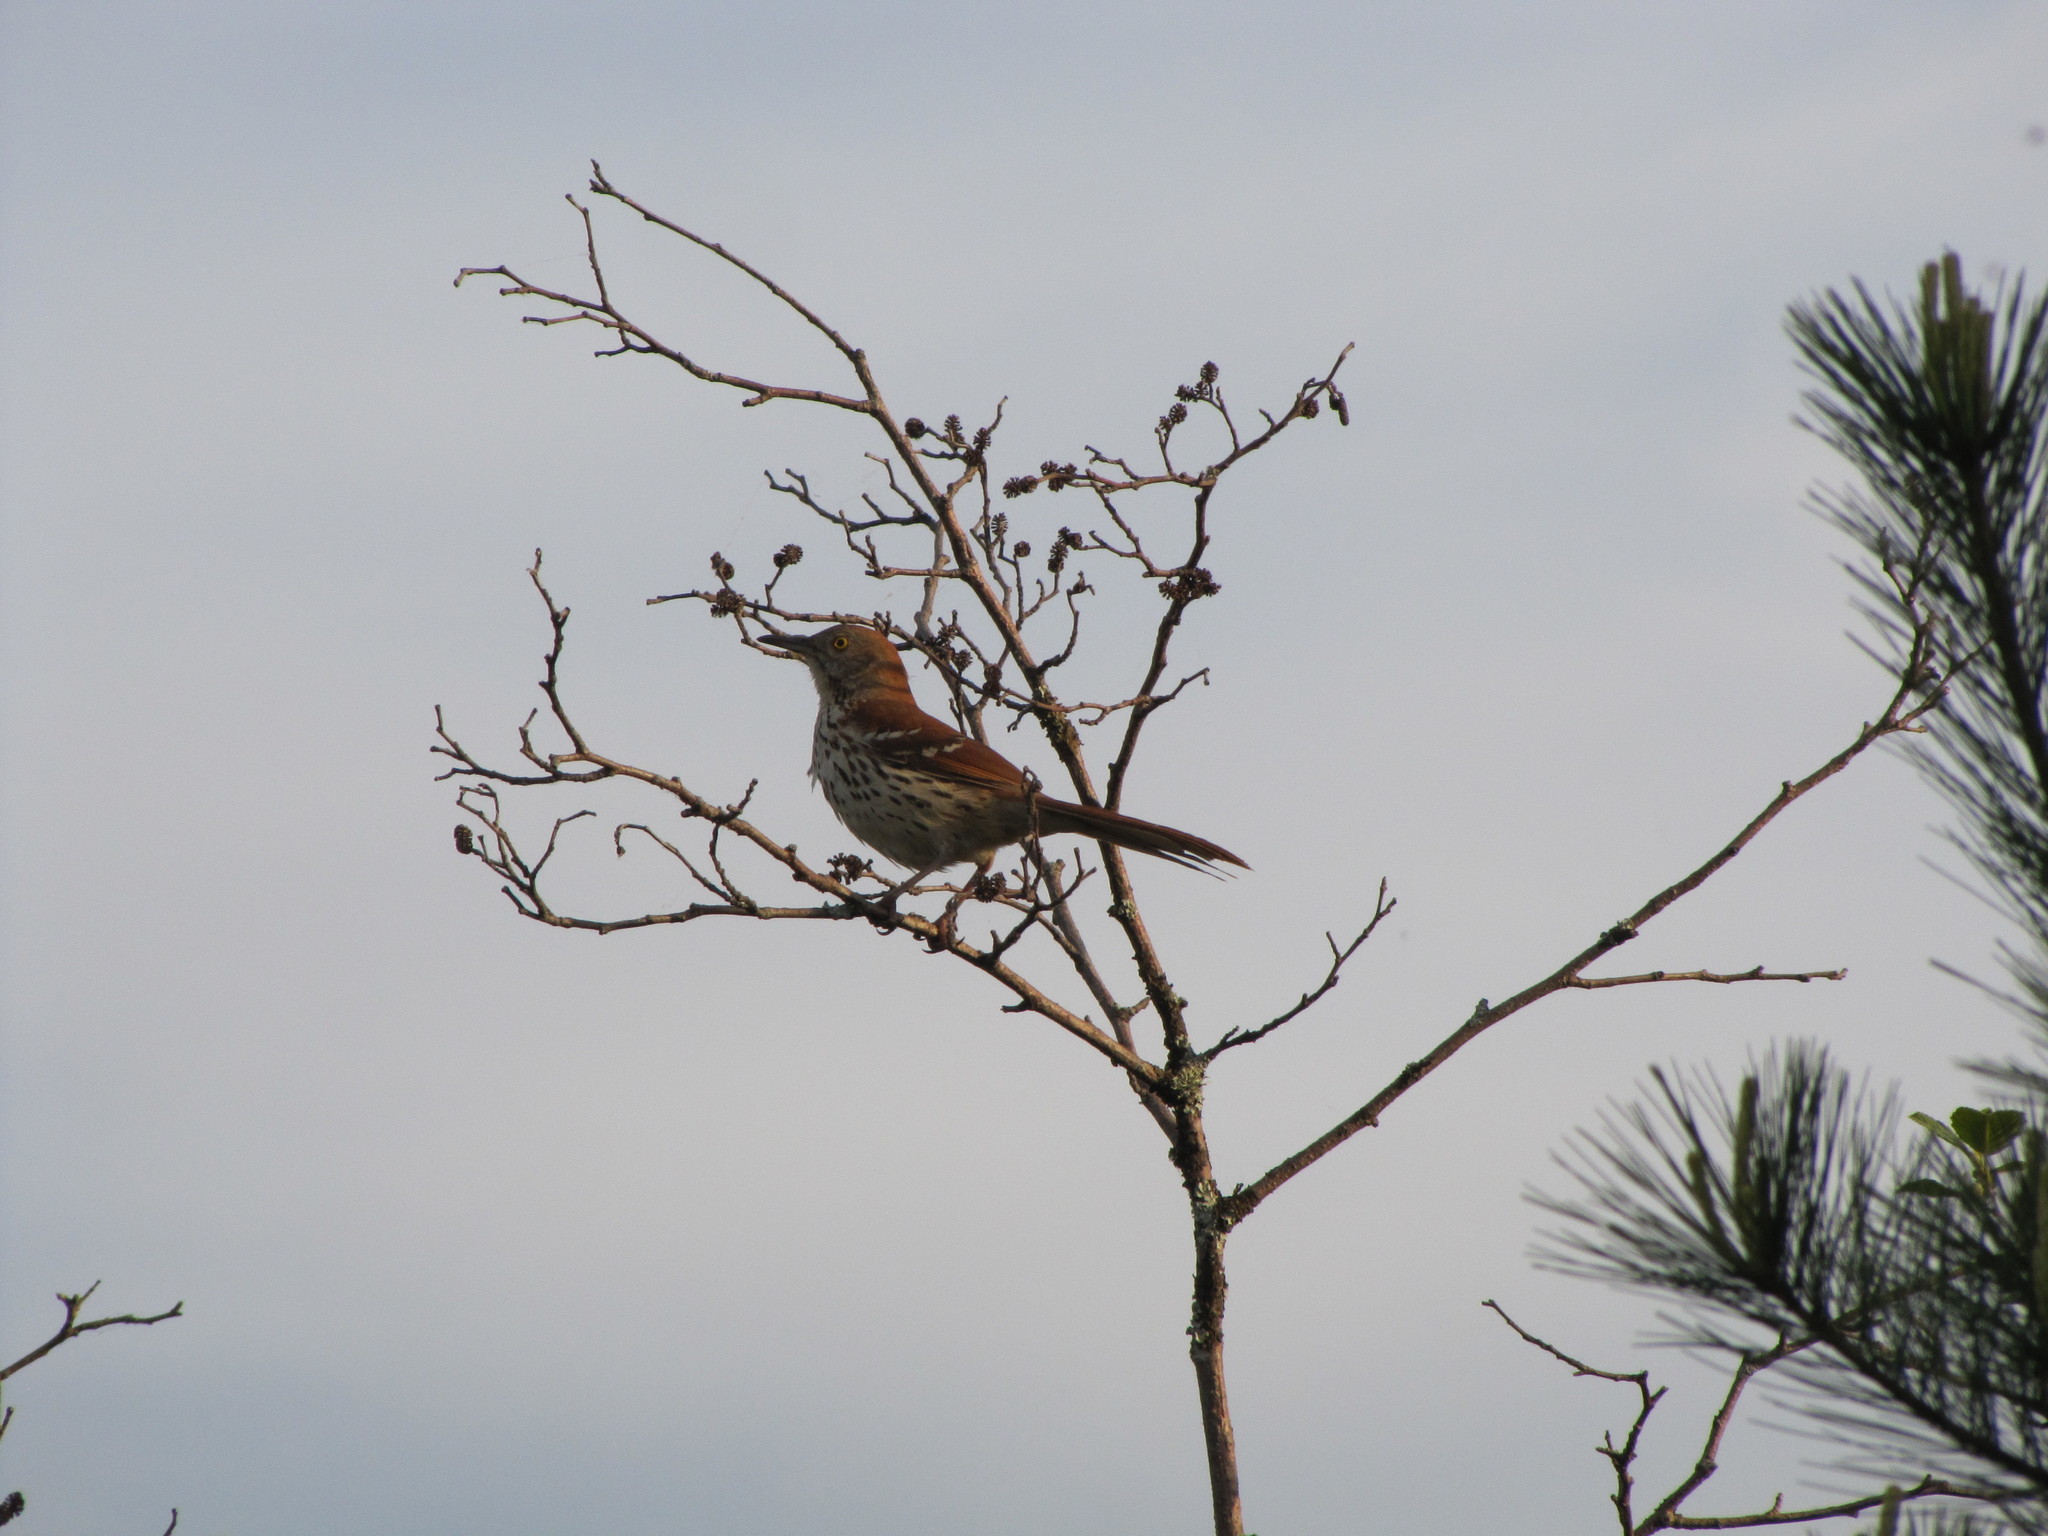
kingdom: Animalia
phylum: Chordata
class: Aves
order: Passeriformes
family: Mimidae
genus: Toxostoma
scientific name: Toxostoma rufum
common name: Brown thrasher
